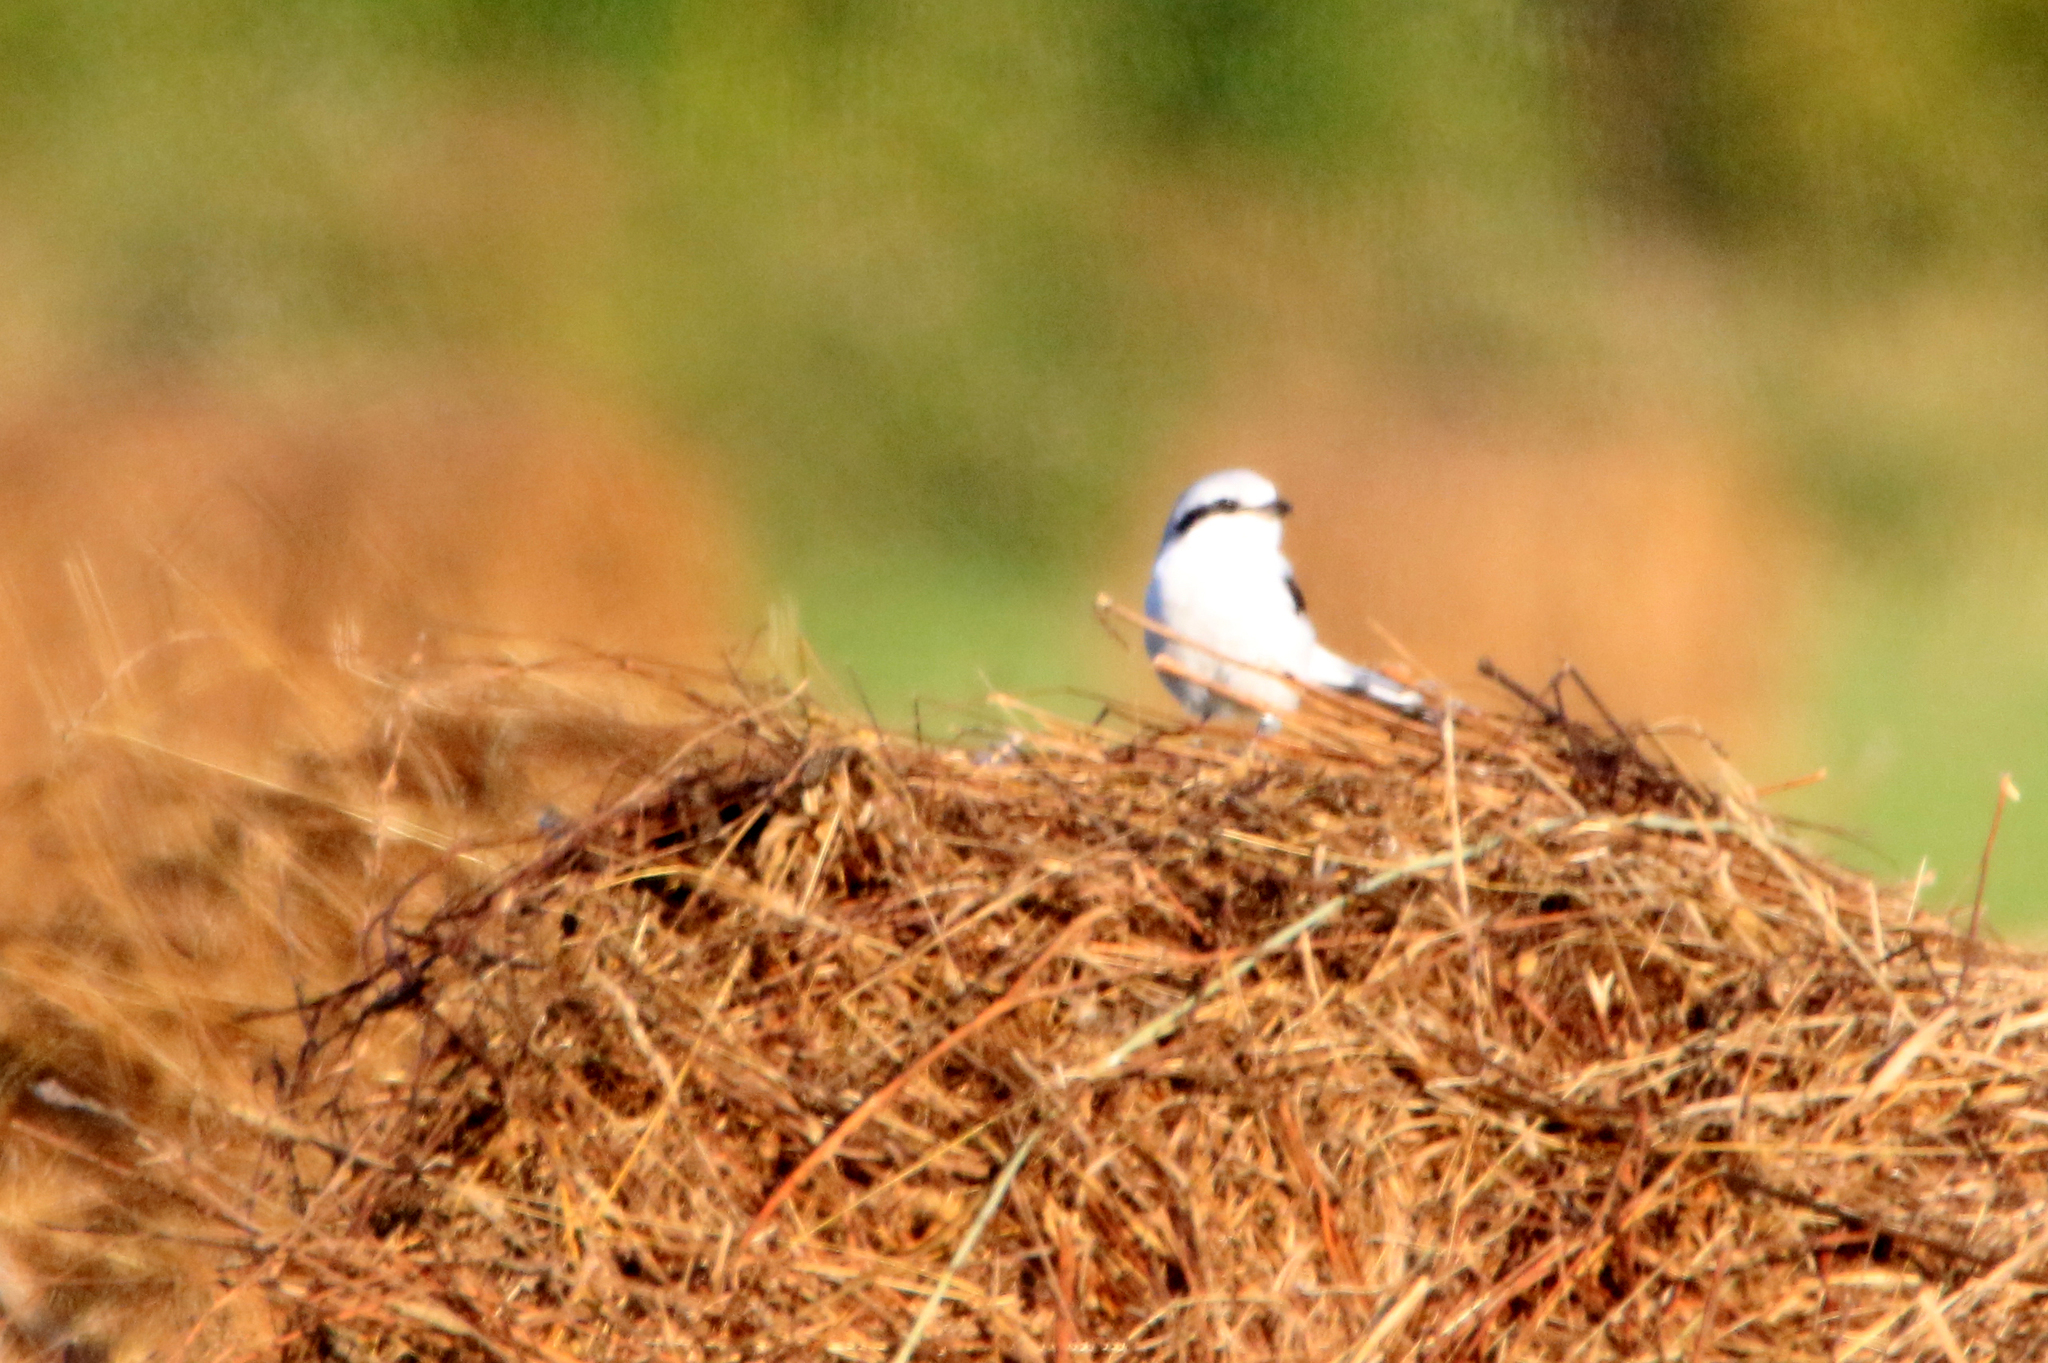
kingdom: Animalia
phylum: Chordata
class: Aves
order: Passeriformes
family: Laniidae
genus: Lanius
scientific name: Lanius excubitor
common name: Great grey shrike
